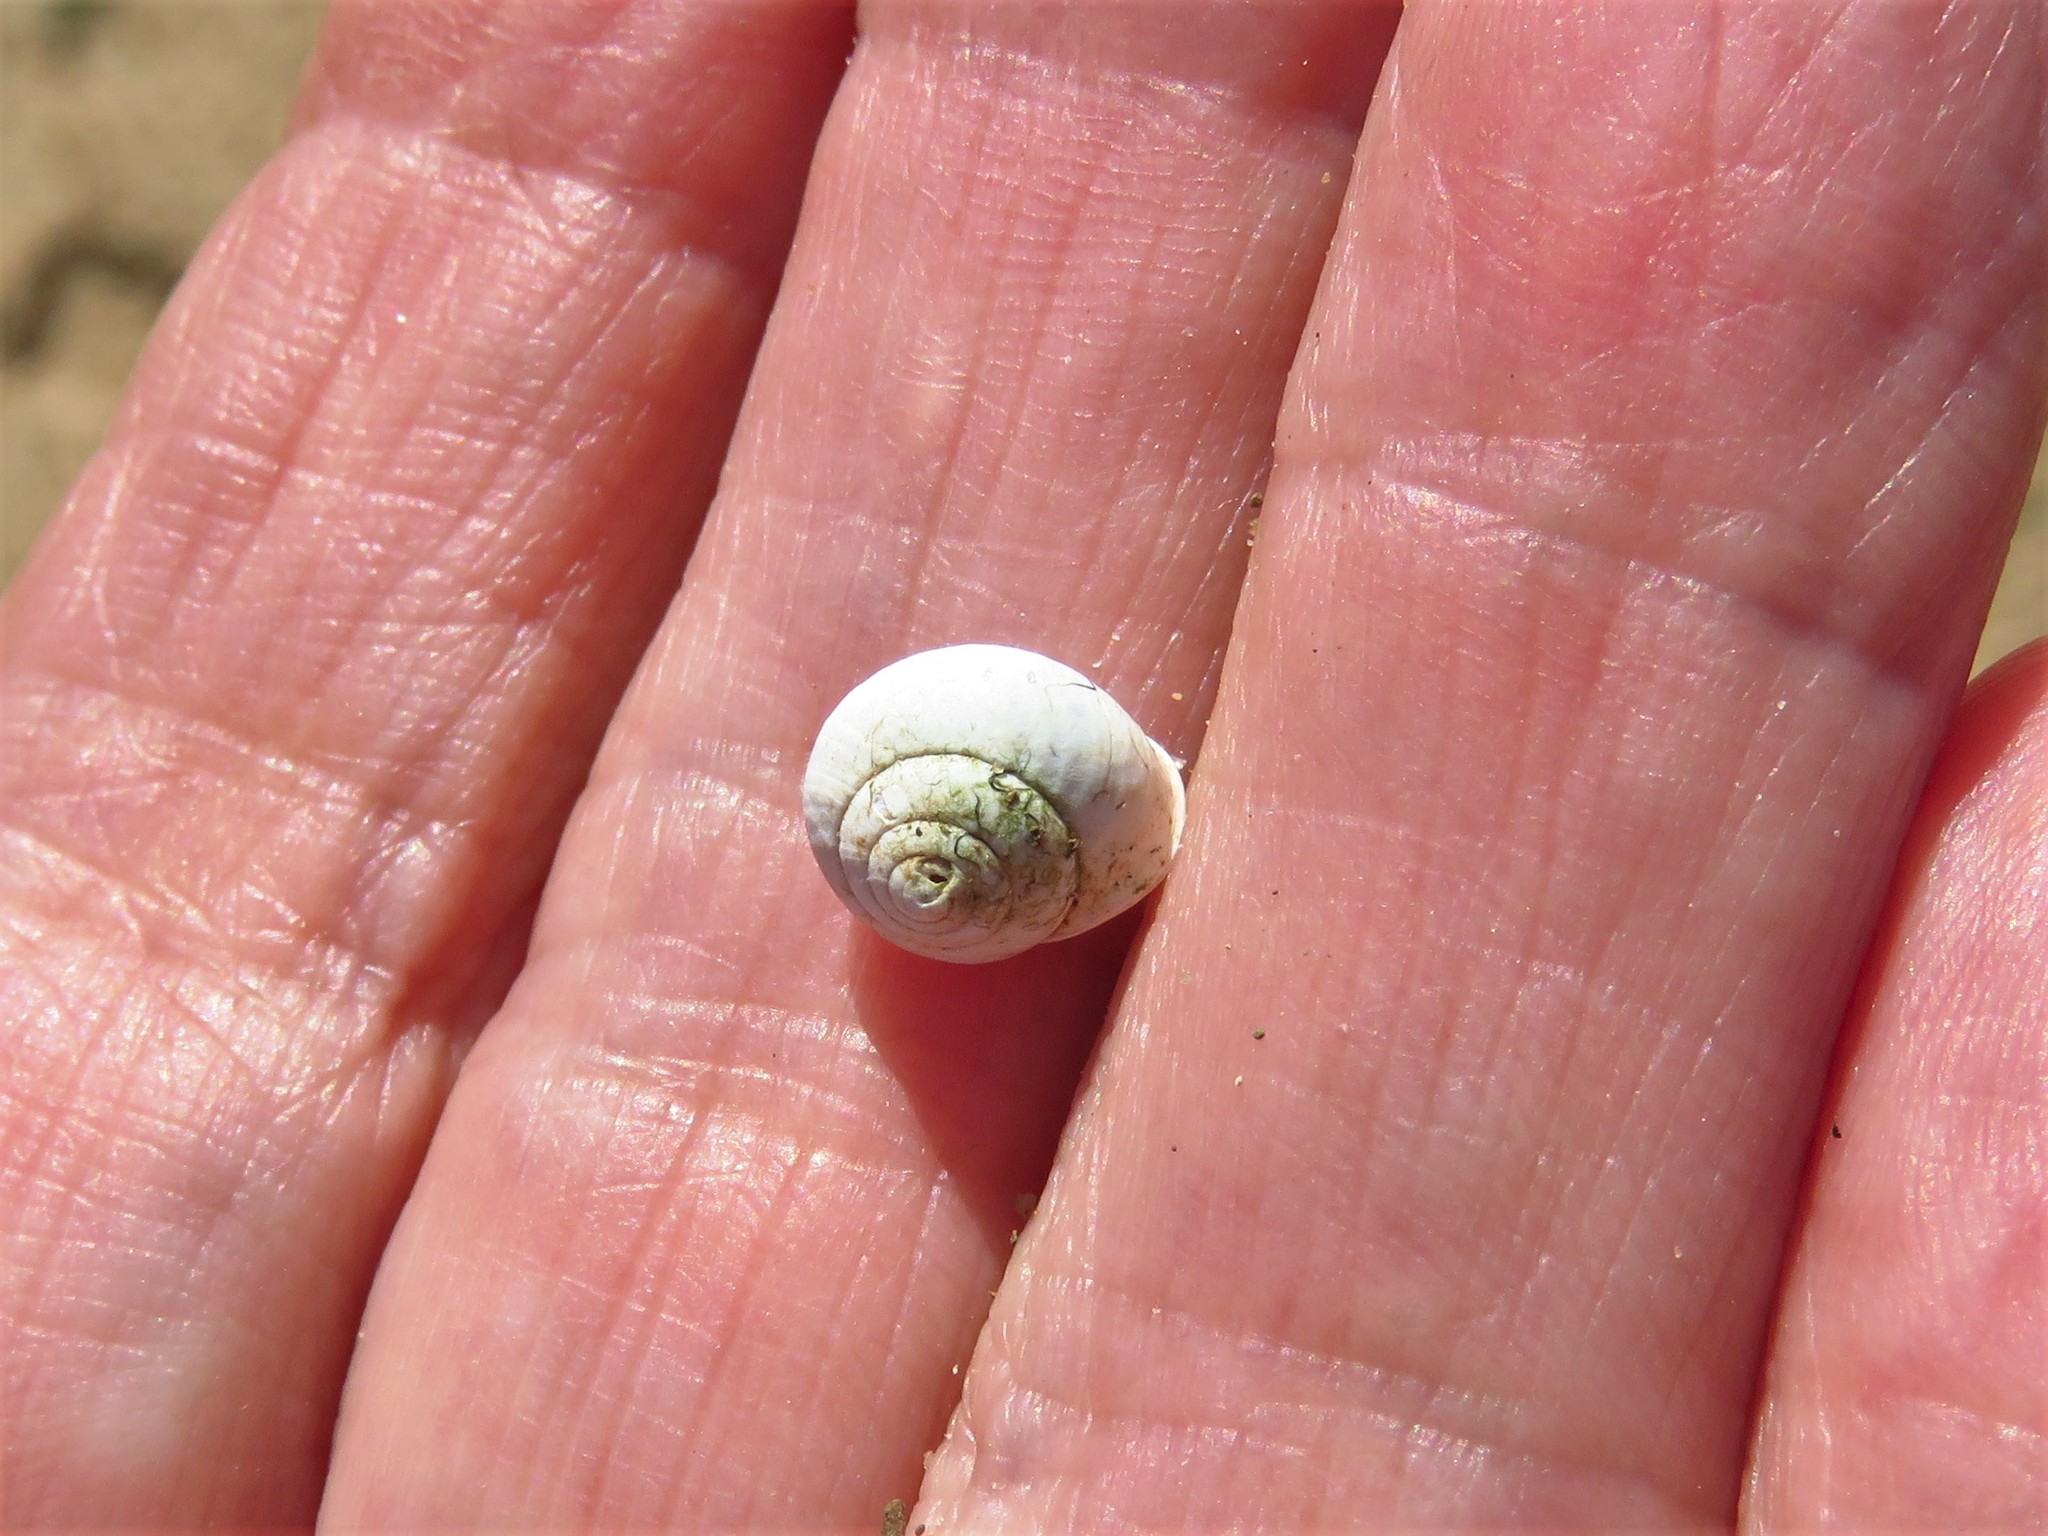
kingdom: Animalia
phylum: Mollusca
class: Gastropoda
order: Cycloneritida
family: Helicinidae
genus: Helicina
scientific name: Helicina orbiculata
